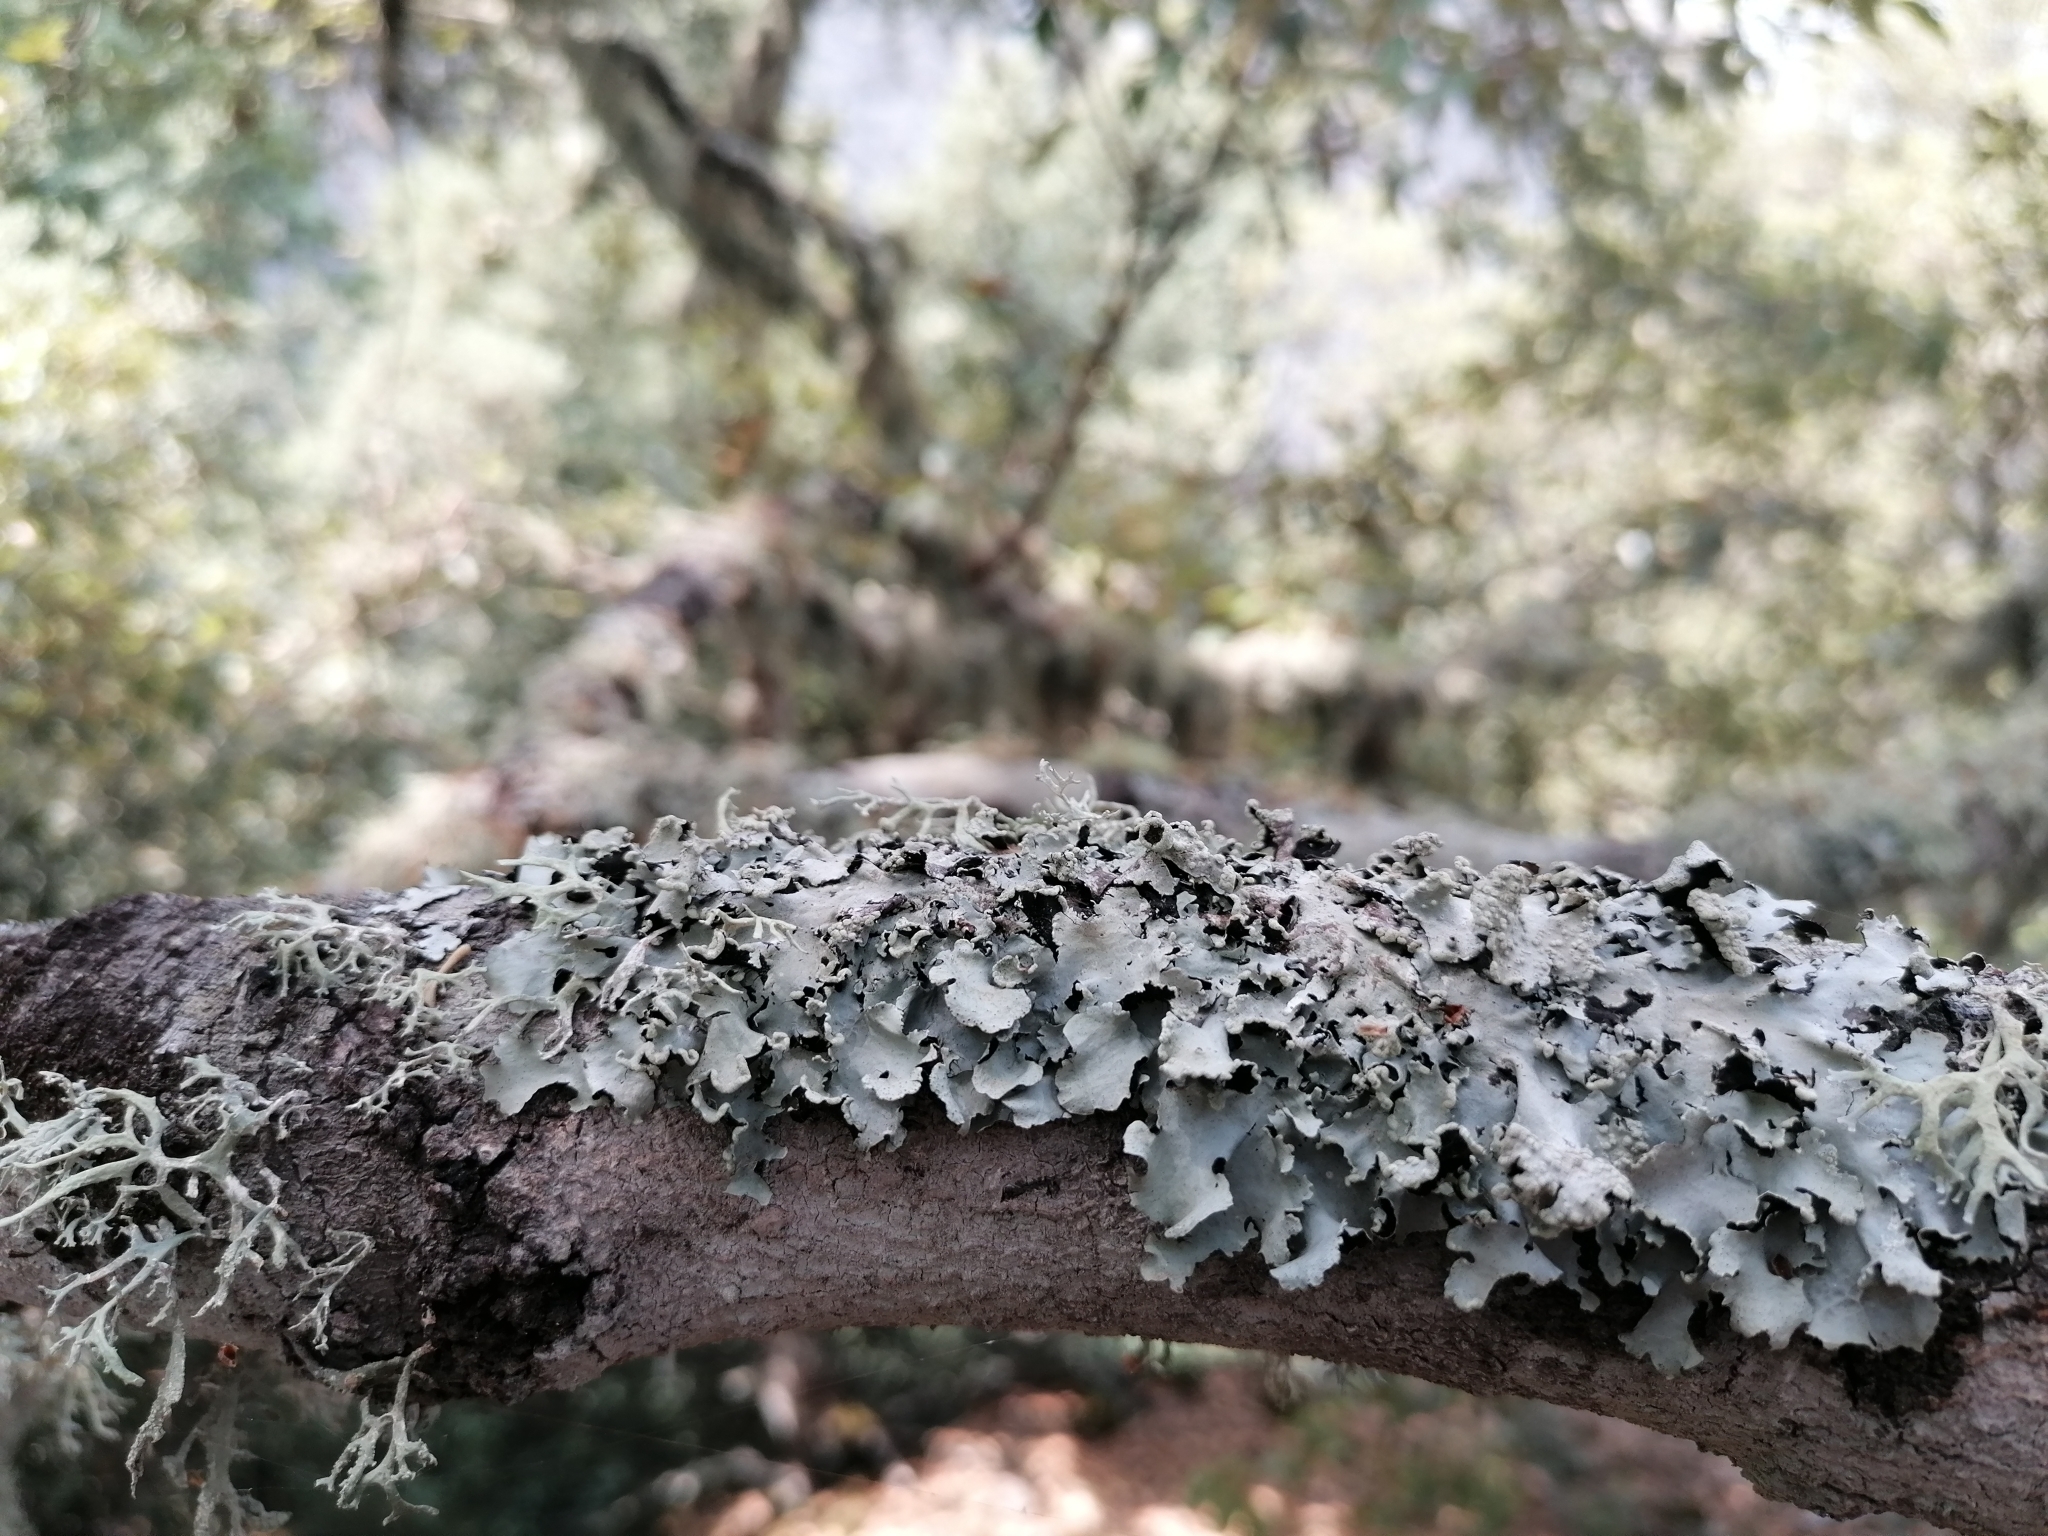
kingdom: Fungi
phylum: Ascomycota
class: Lecanoromycetes
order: Lecanorales
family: Parmeliaceae
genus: Parmotrema
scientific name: Parmotrema perlatum
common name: Black stone flower
